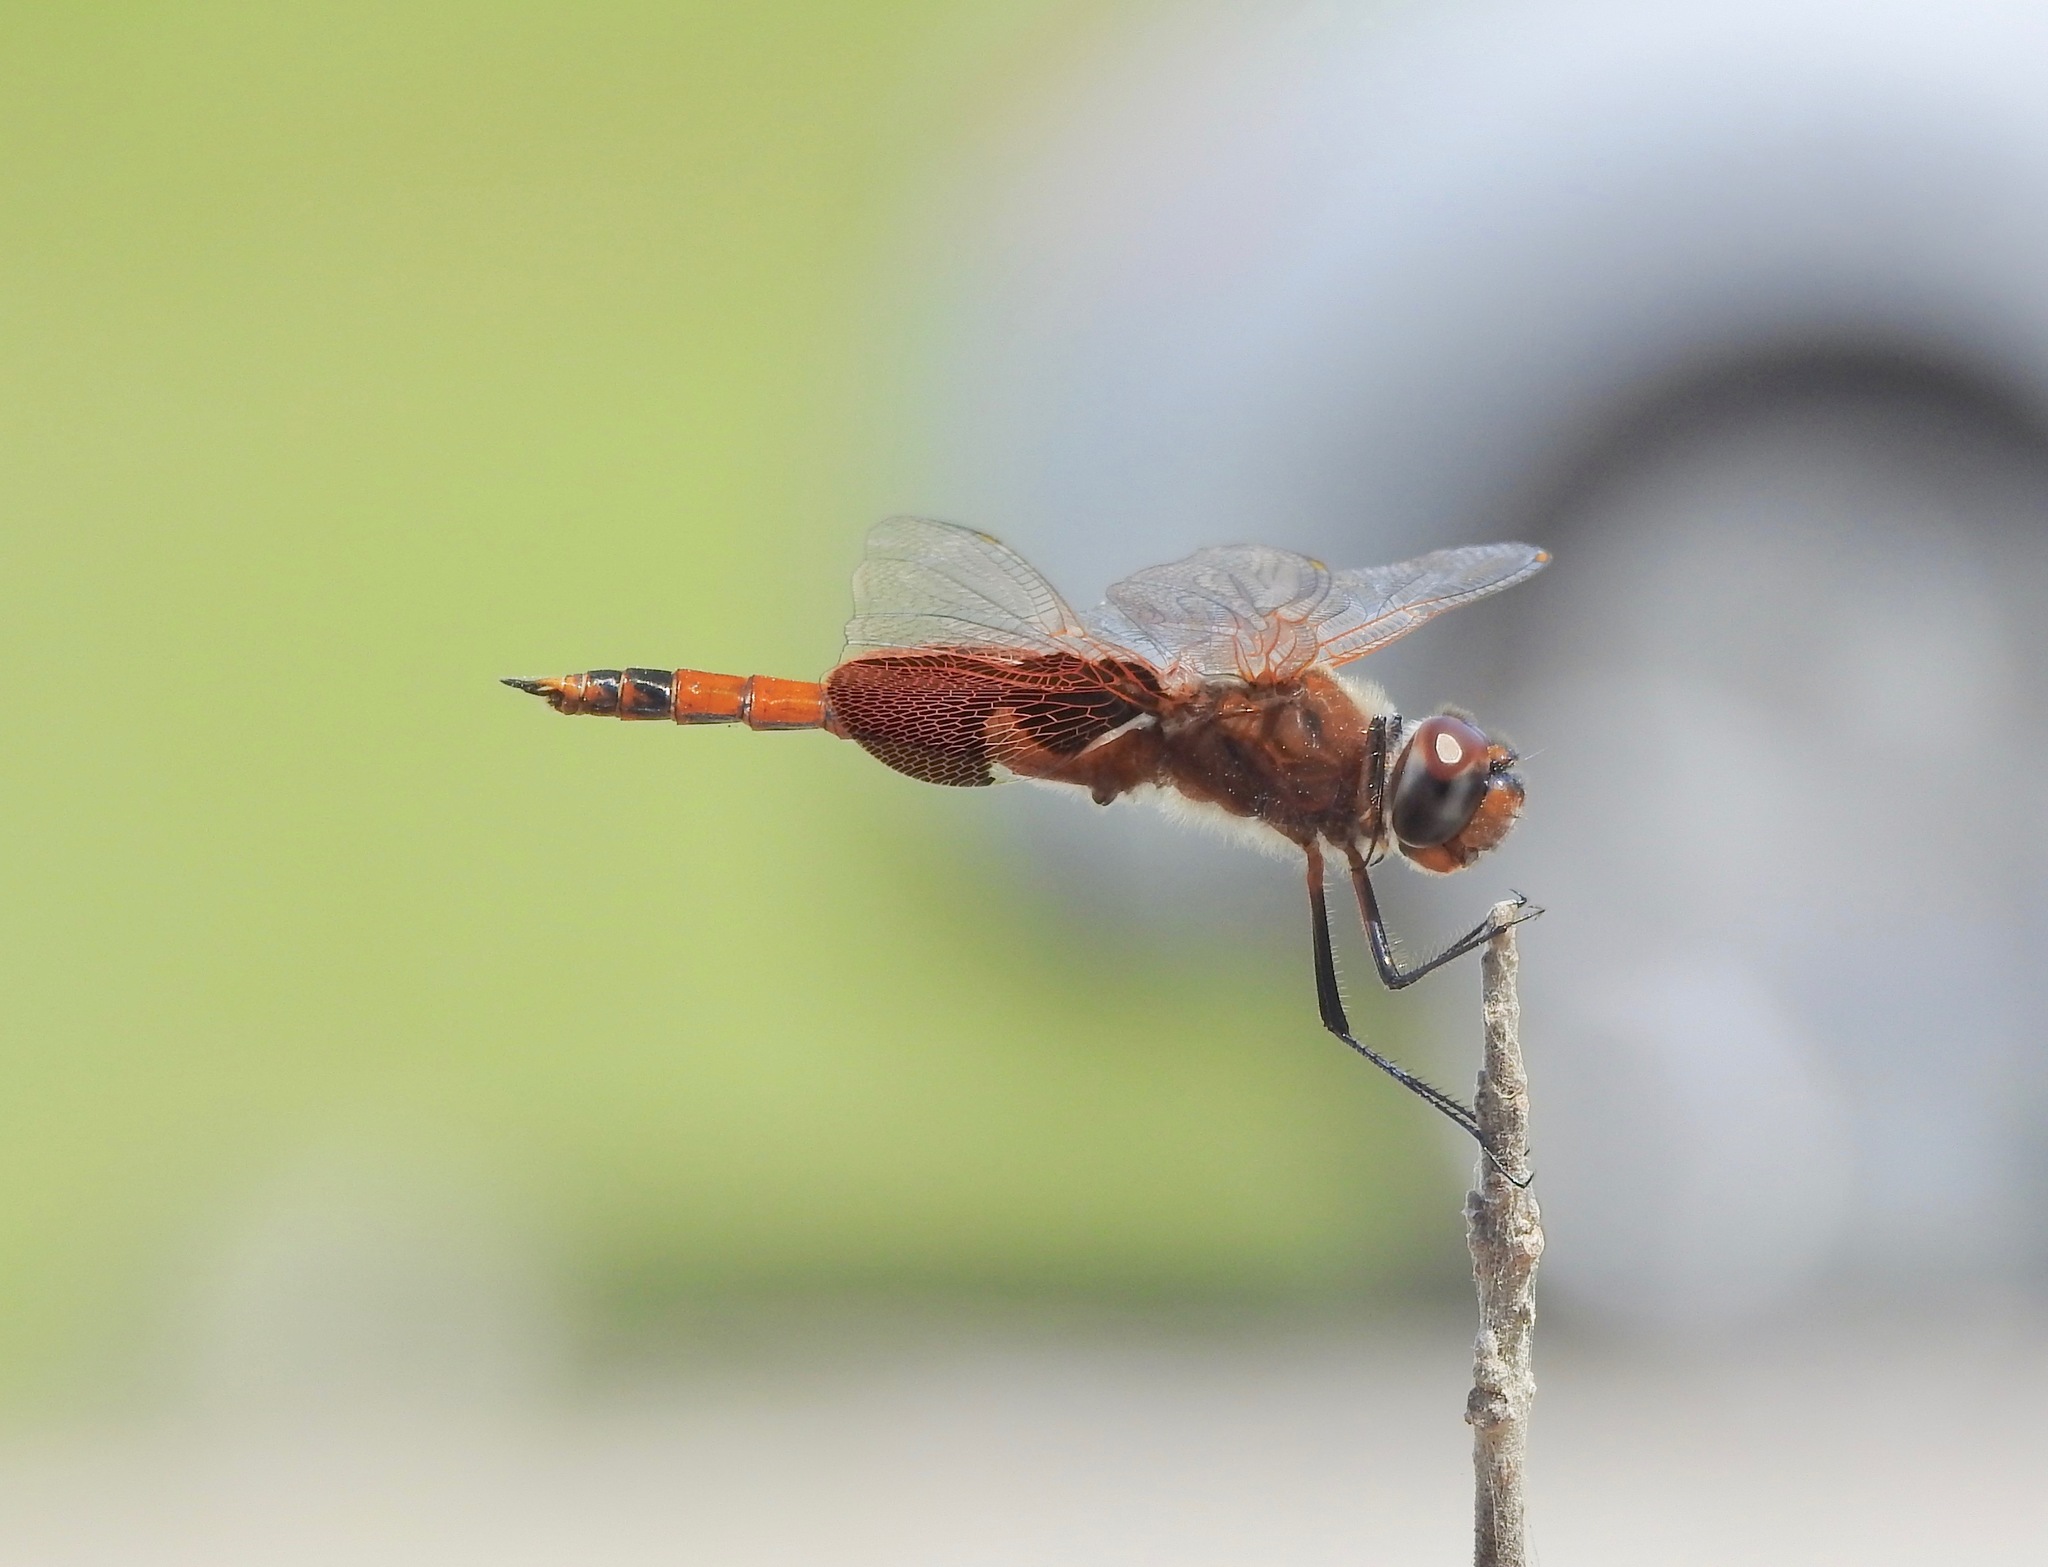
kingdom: Animalia
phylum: Arthropoda
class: Insecta
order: Odonata
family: Libellulidae
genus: Tramea
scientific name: Tramea carolina
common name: Carolina saddlebags
